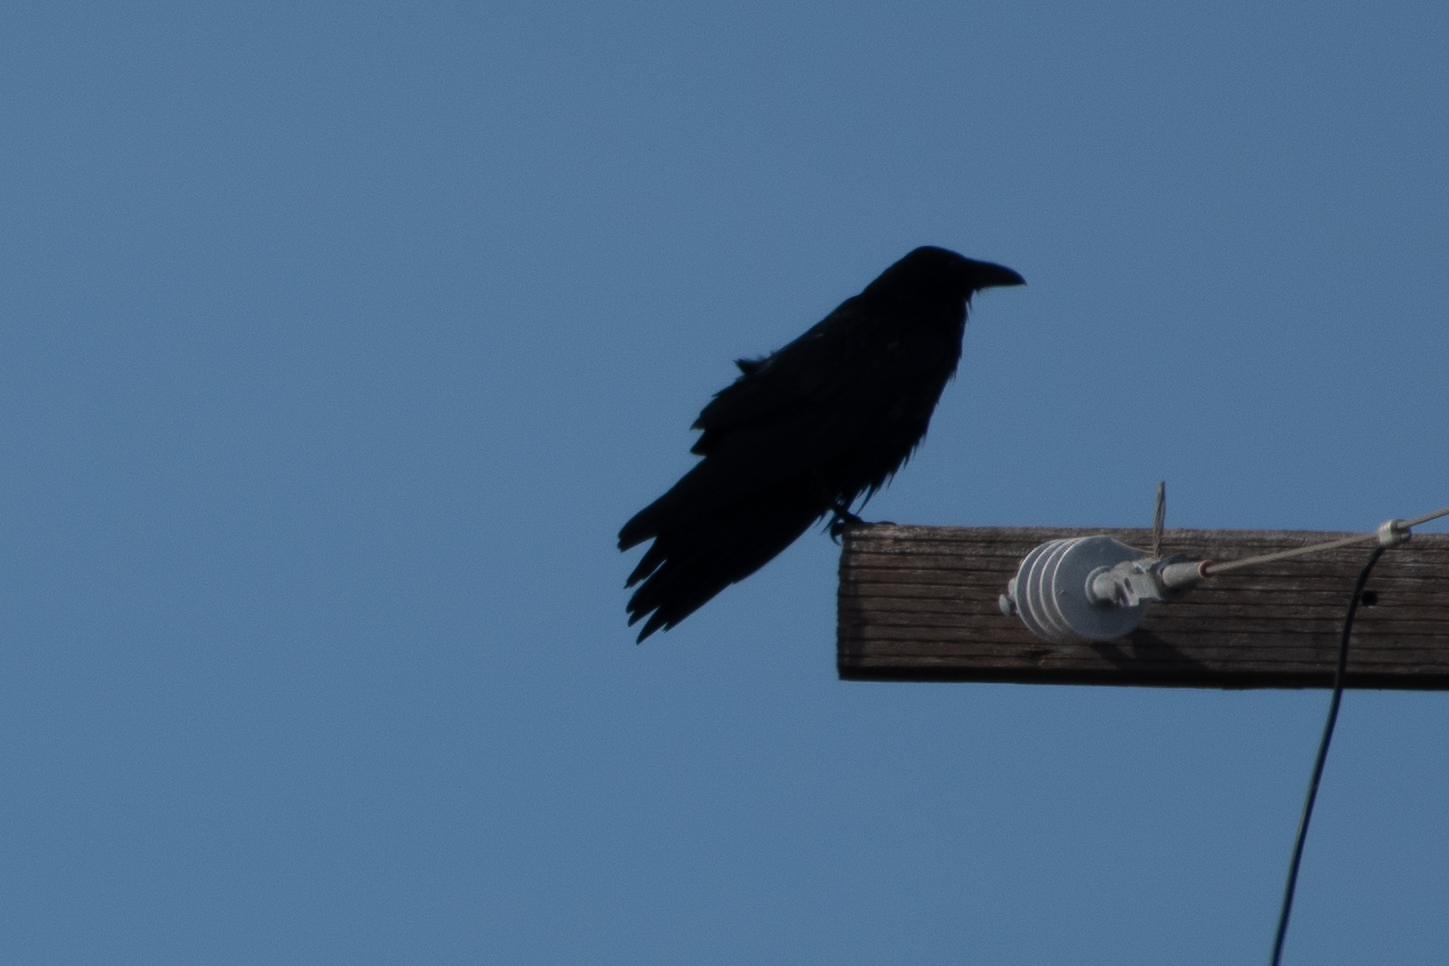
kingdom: Animalia
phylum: Chordata
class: Aves
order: Passeriformes
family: Corvidae
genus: Corvus
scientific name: Corvus corax
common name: Common raven
